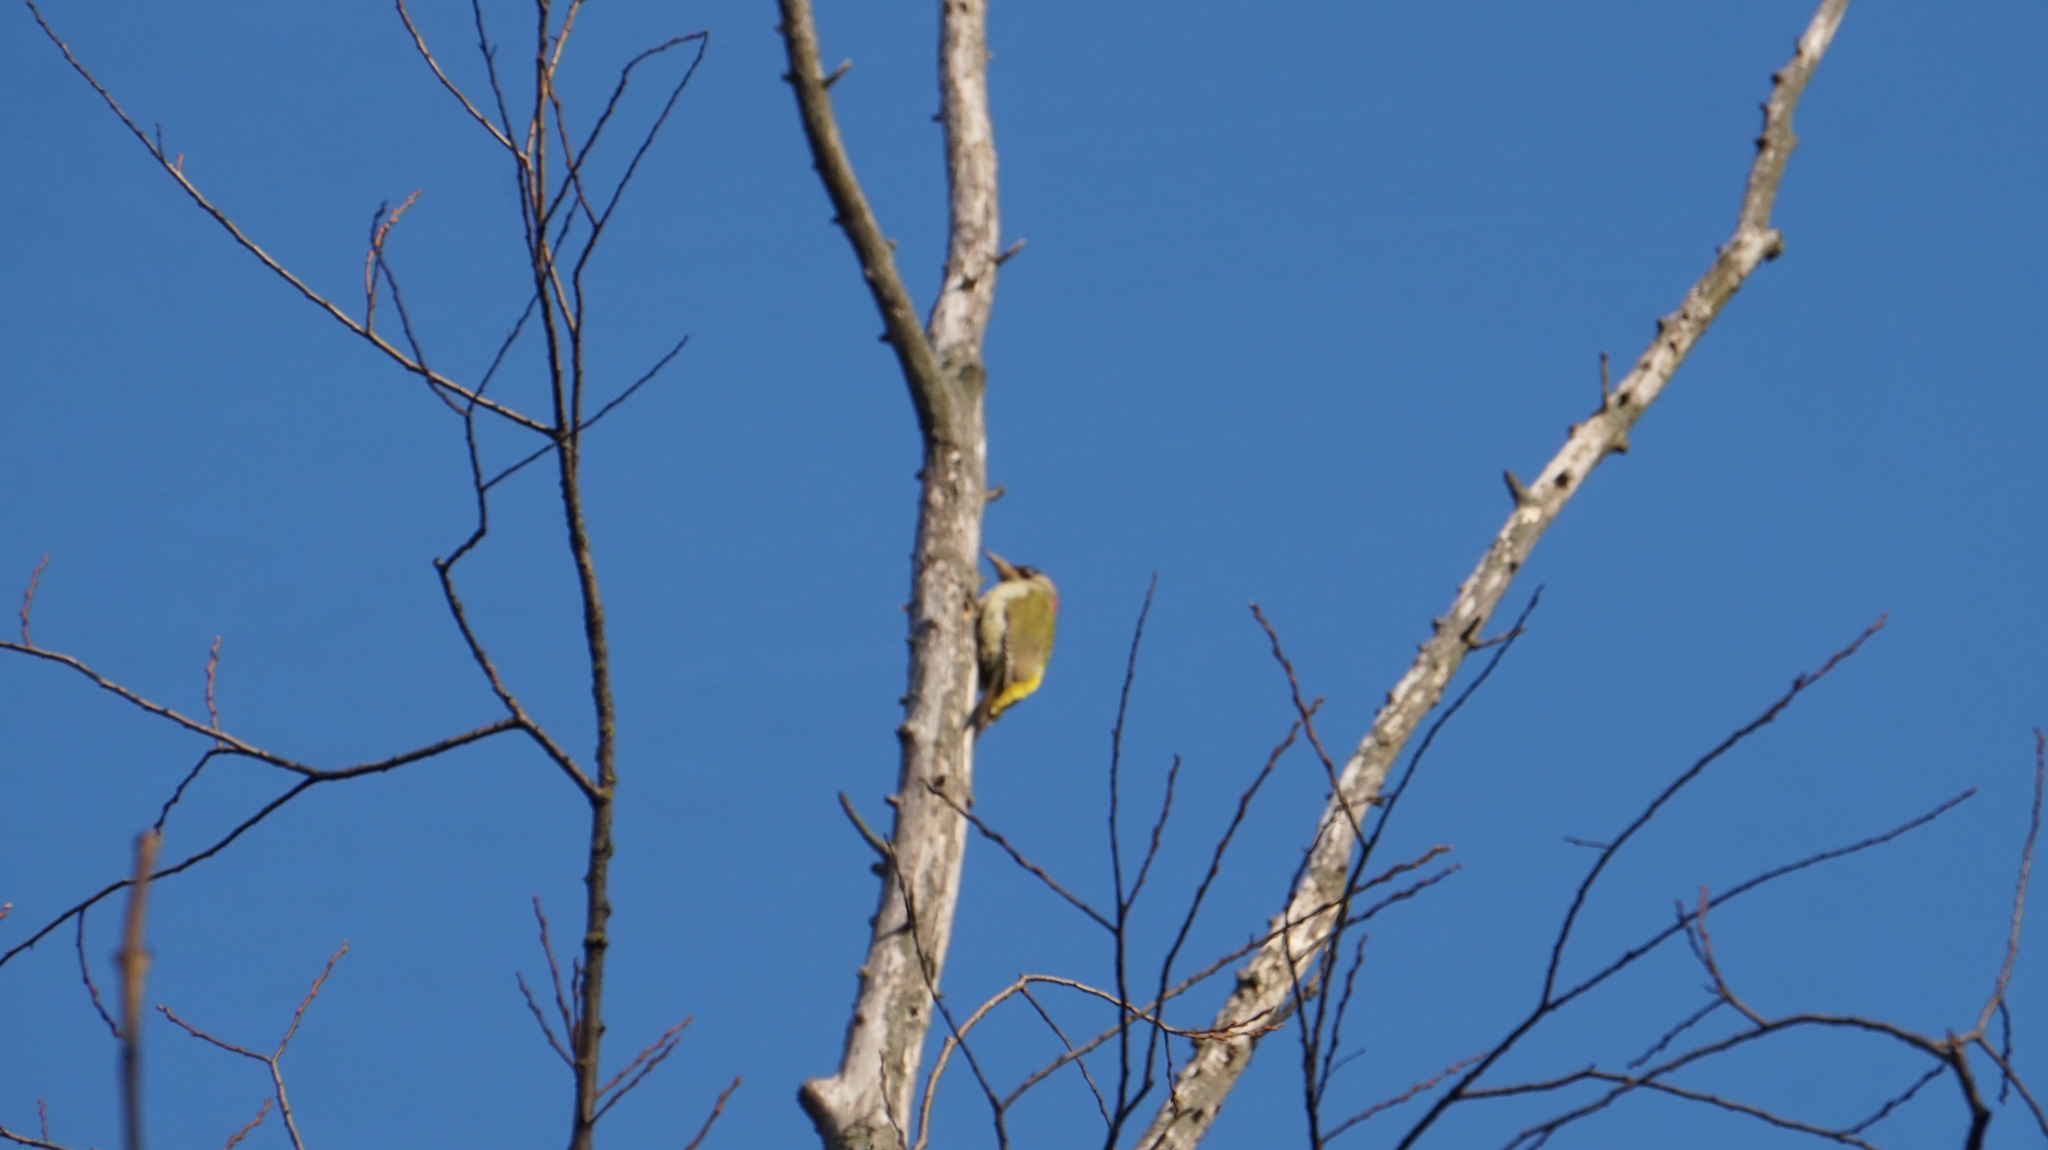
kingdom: Animalia
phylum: Chordata
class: Aves
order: Piciformes
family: Picidae
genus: Picus
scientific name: Picus viridis
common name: European green woodpecker
